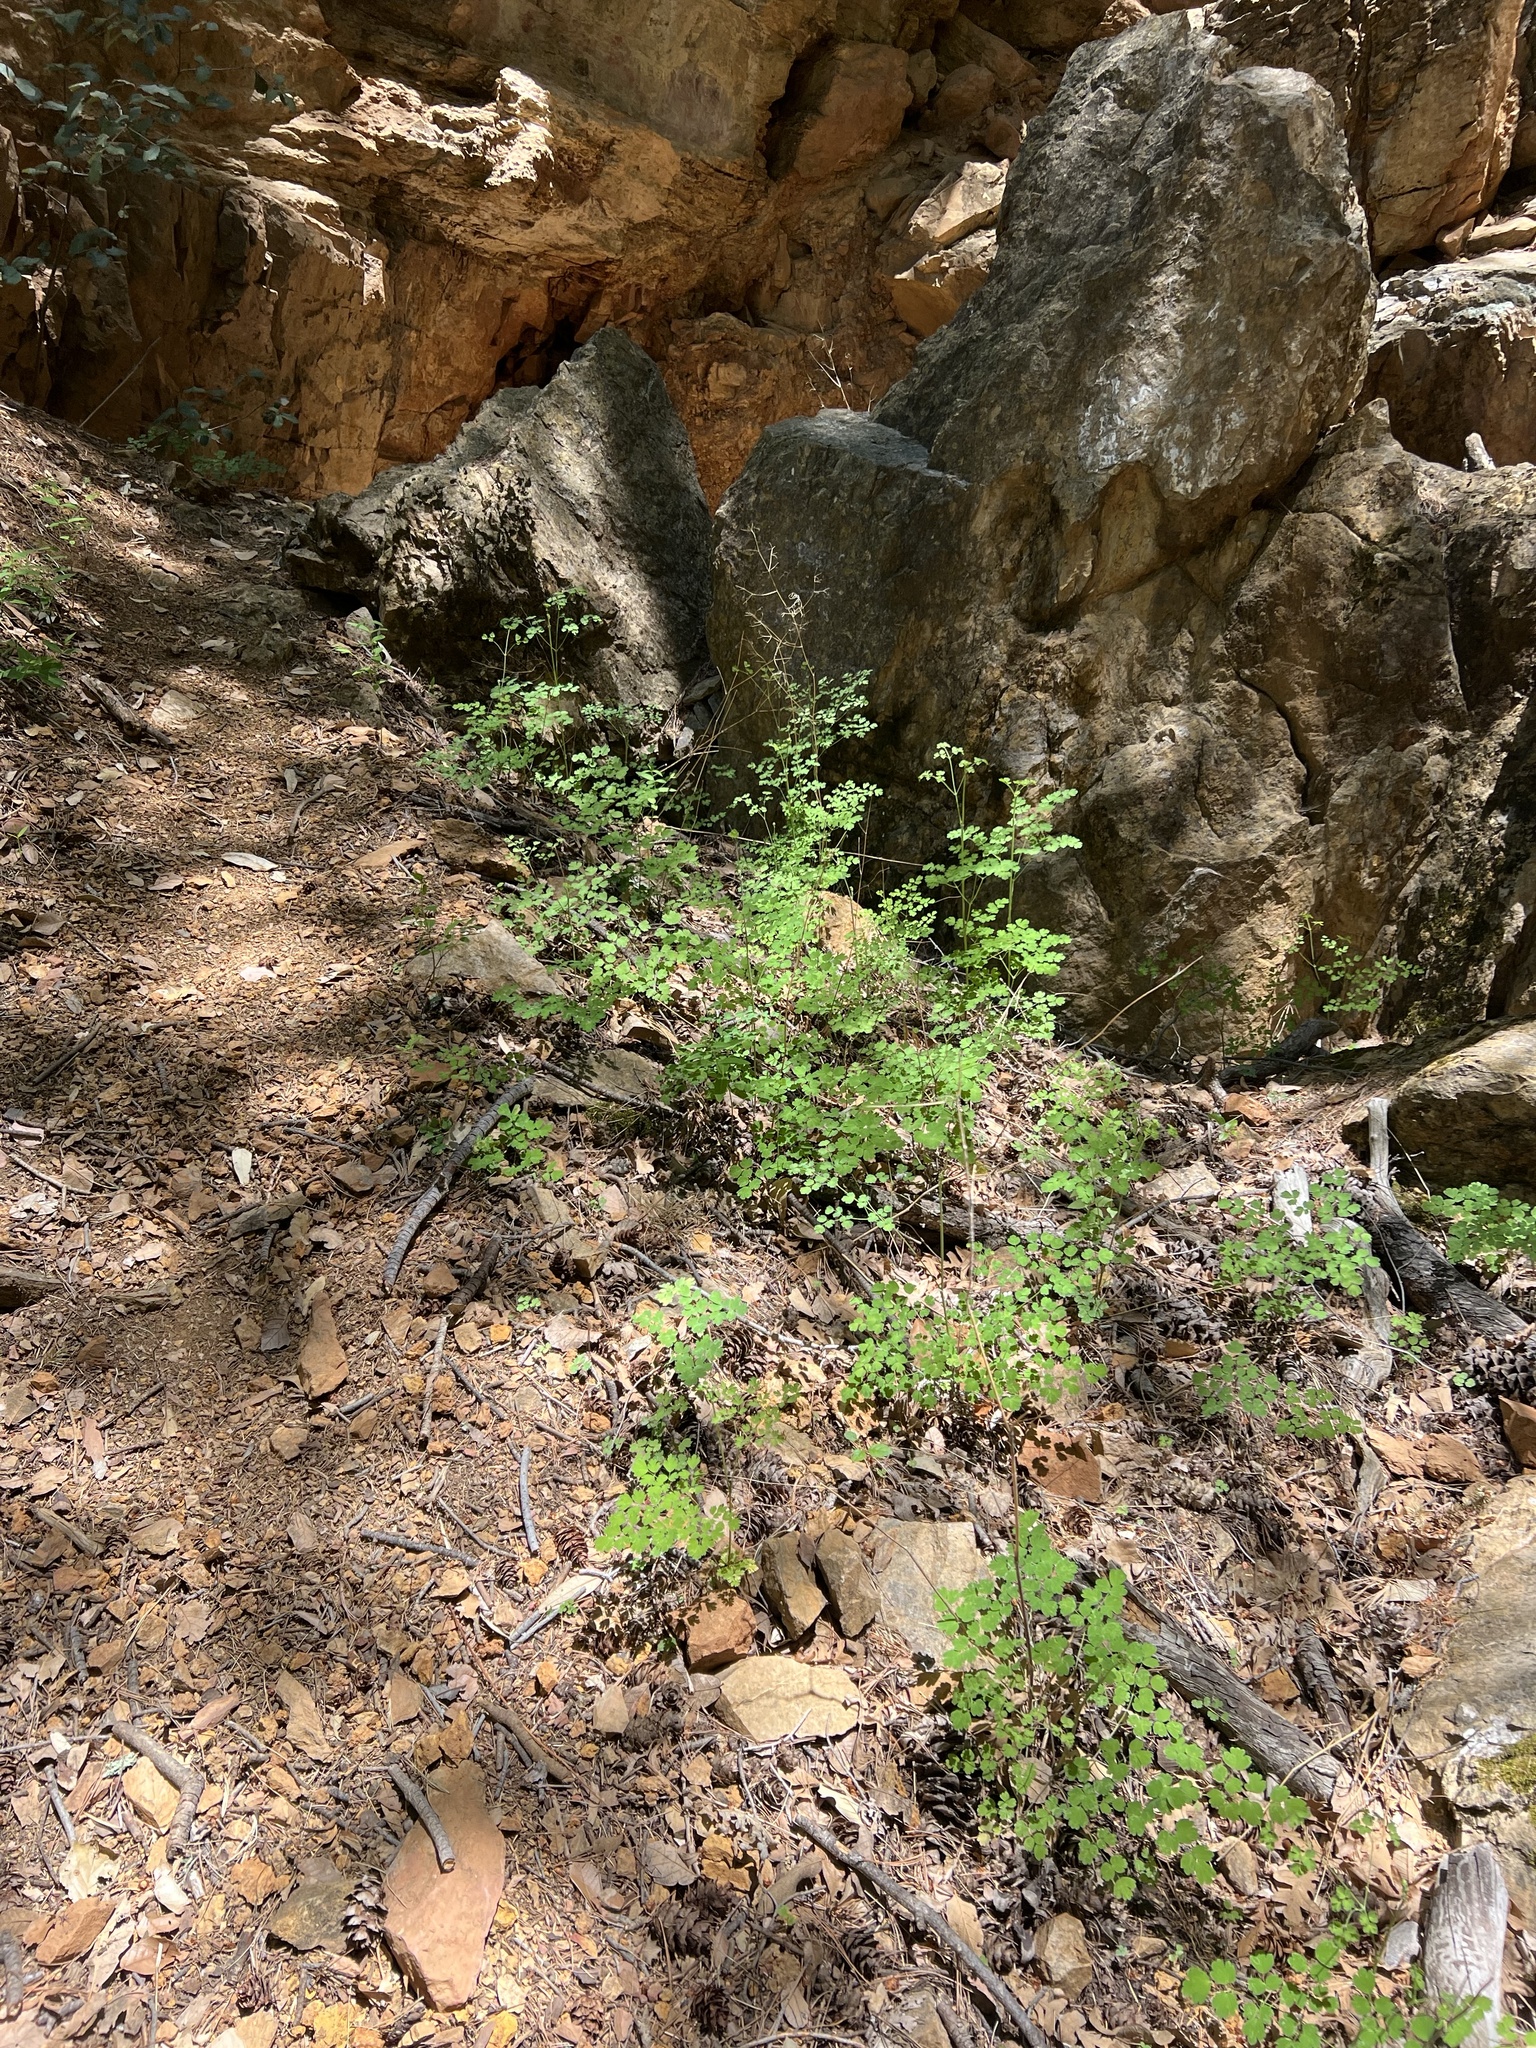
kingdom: Plantae
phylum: Tracheophyta
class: Magnoliopsida
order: Ranunculales
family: Ranunculaceae
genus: Thalictrum
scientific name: Thalictrum fendleri
